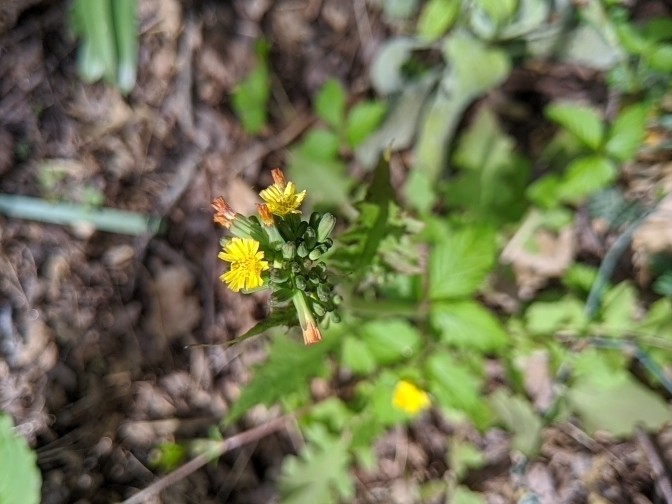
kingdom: Plantae
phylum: Tracheophyta
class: Magnoliopsida
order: Asterales
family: Asteraceae
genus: Youngia
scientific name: Youngia japonica
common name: Oriental false hawksbeard
